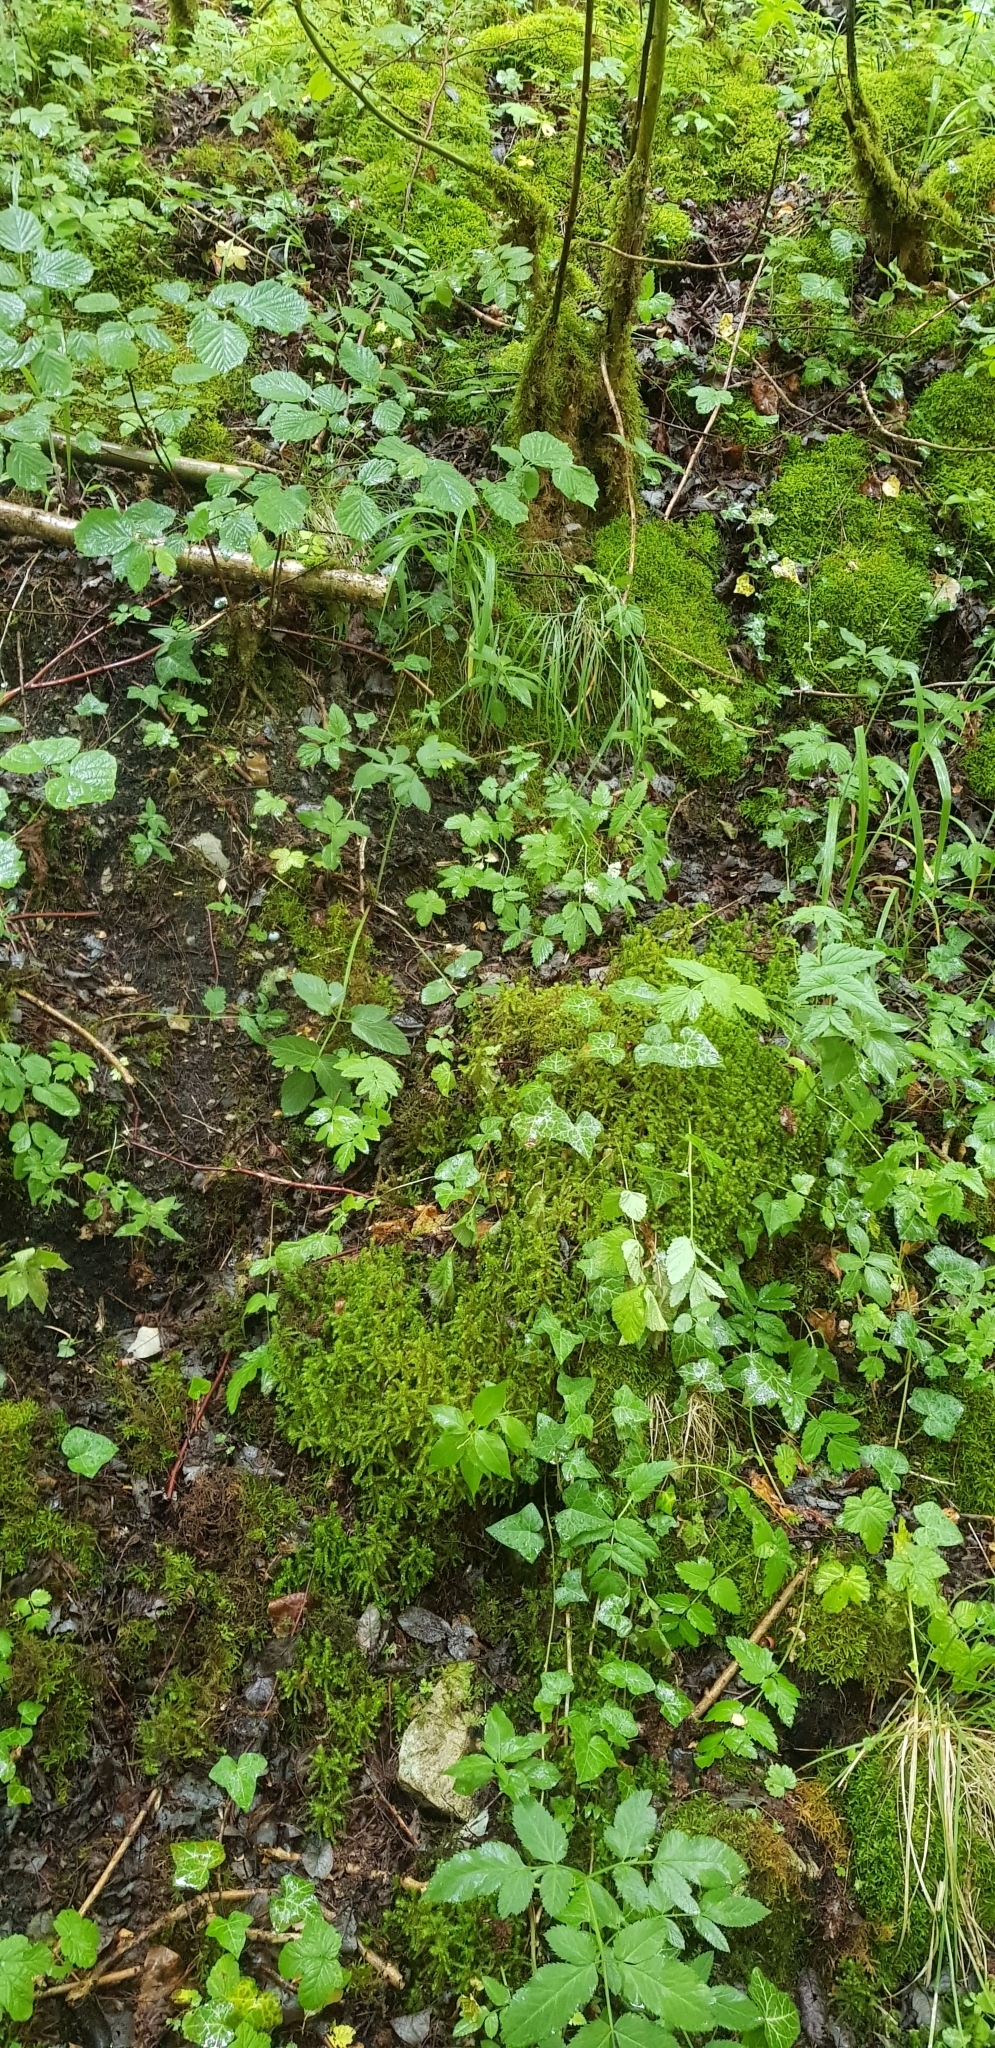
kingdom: Plantae
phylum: Bryophyta
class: Bryopsida
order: Hypnales
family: Hylocomiaceae
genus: Hylocomiadelphus
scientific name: Hylocomiadelphus triquetrus
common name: Rough goose neck moss
